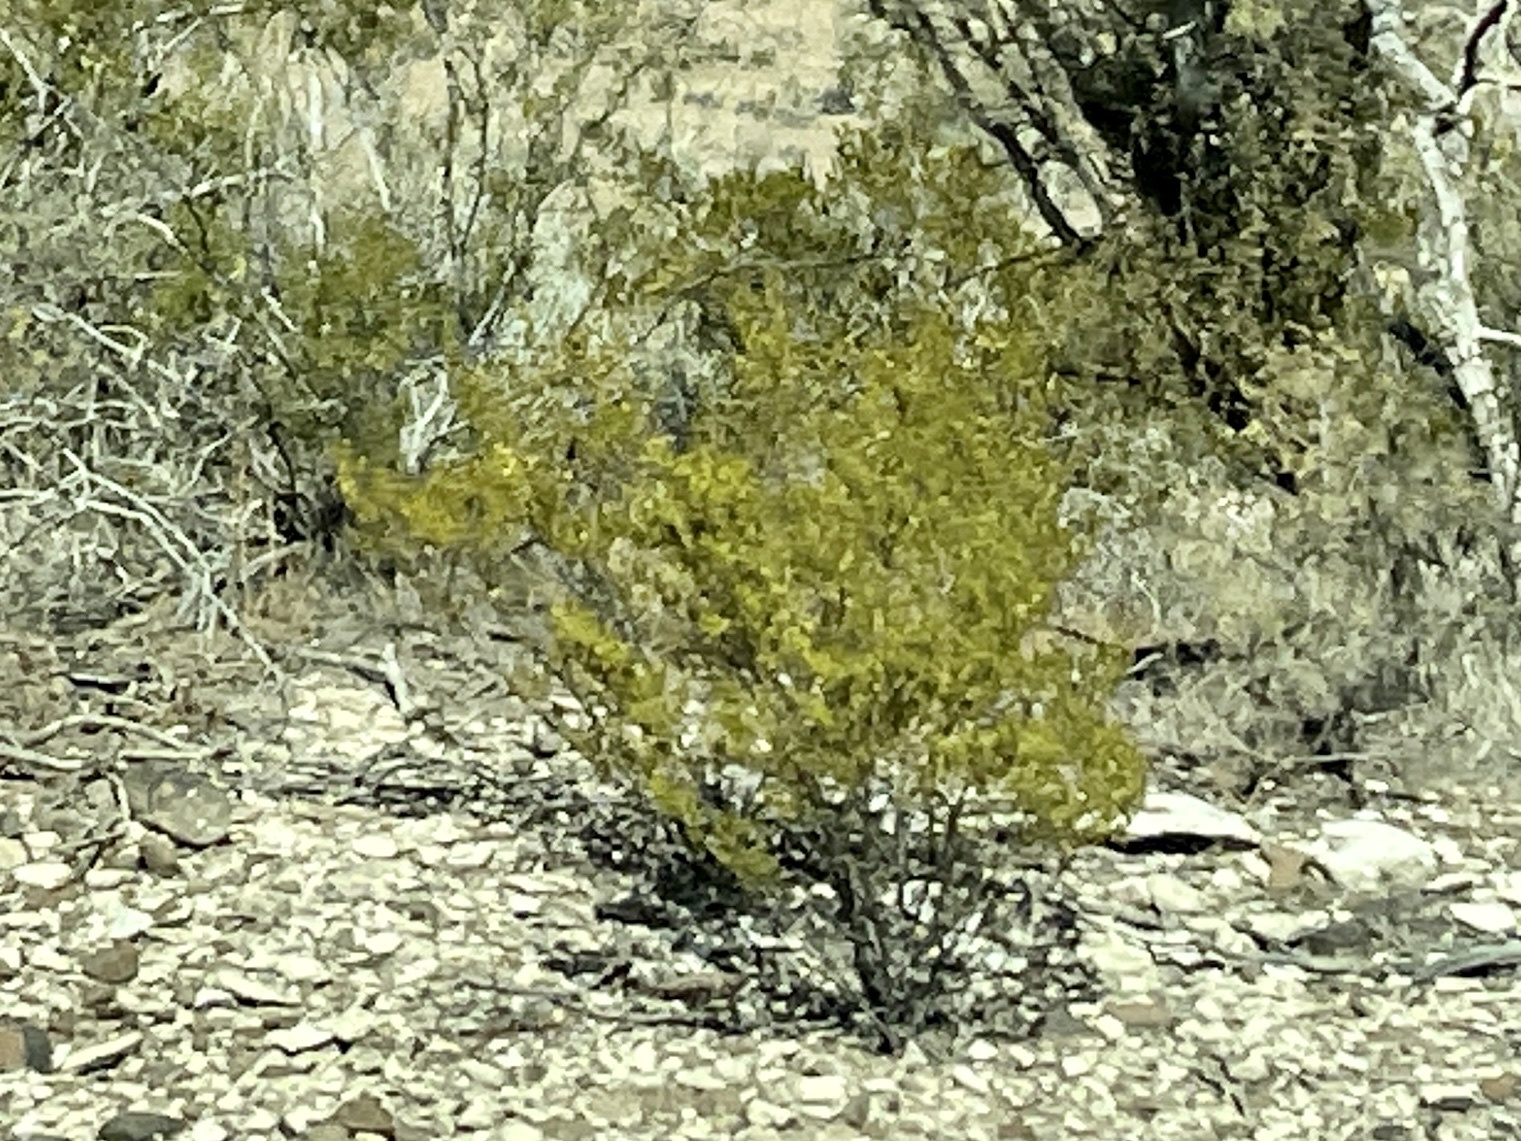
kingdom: Plantae
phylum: Tracheophyta
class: Magnoliopsida
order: Zygophyllales
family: Zygophyllaceae
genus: Larrea
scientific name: Larrea tridentata
